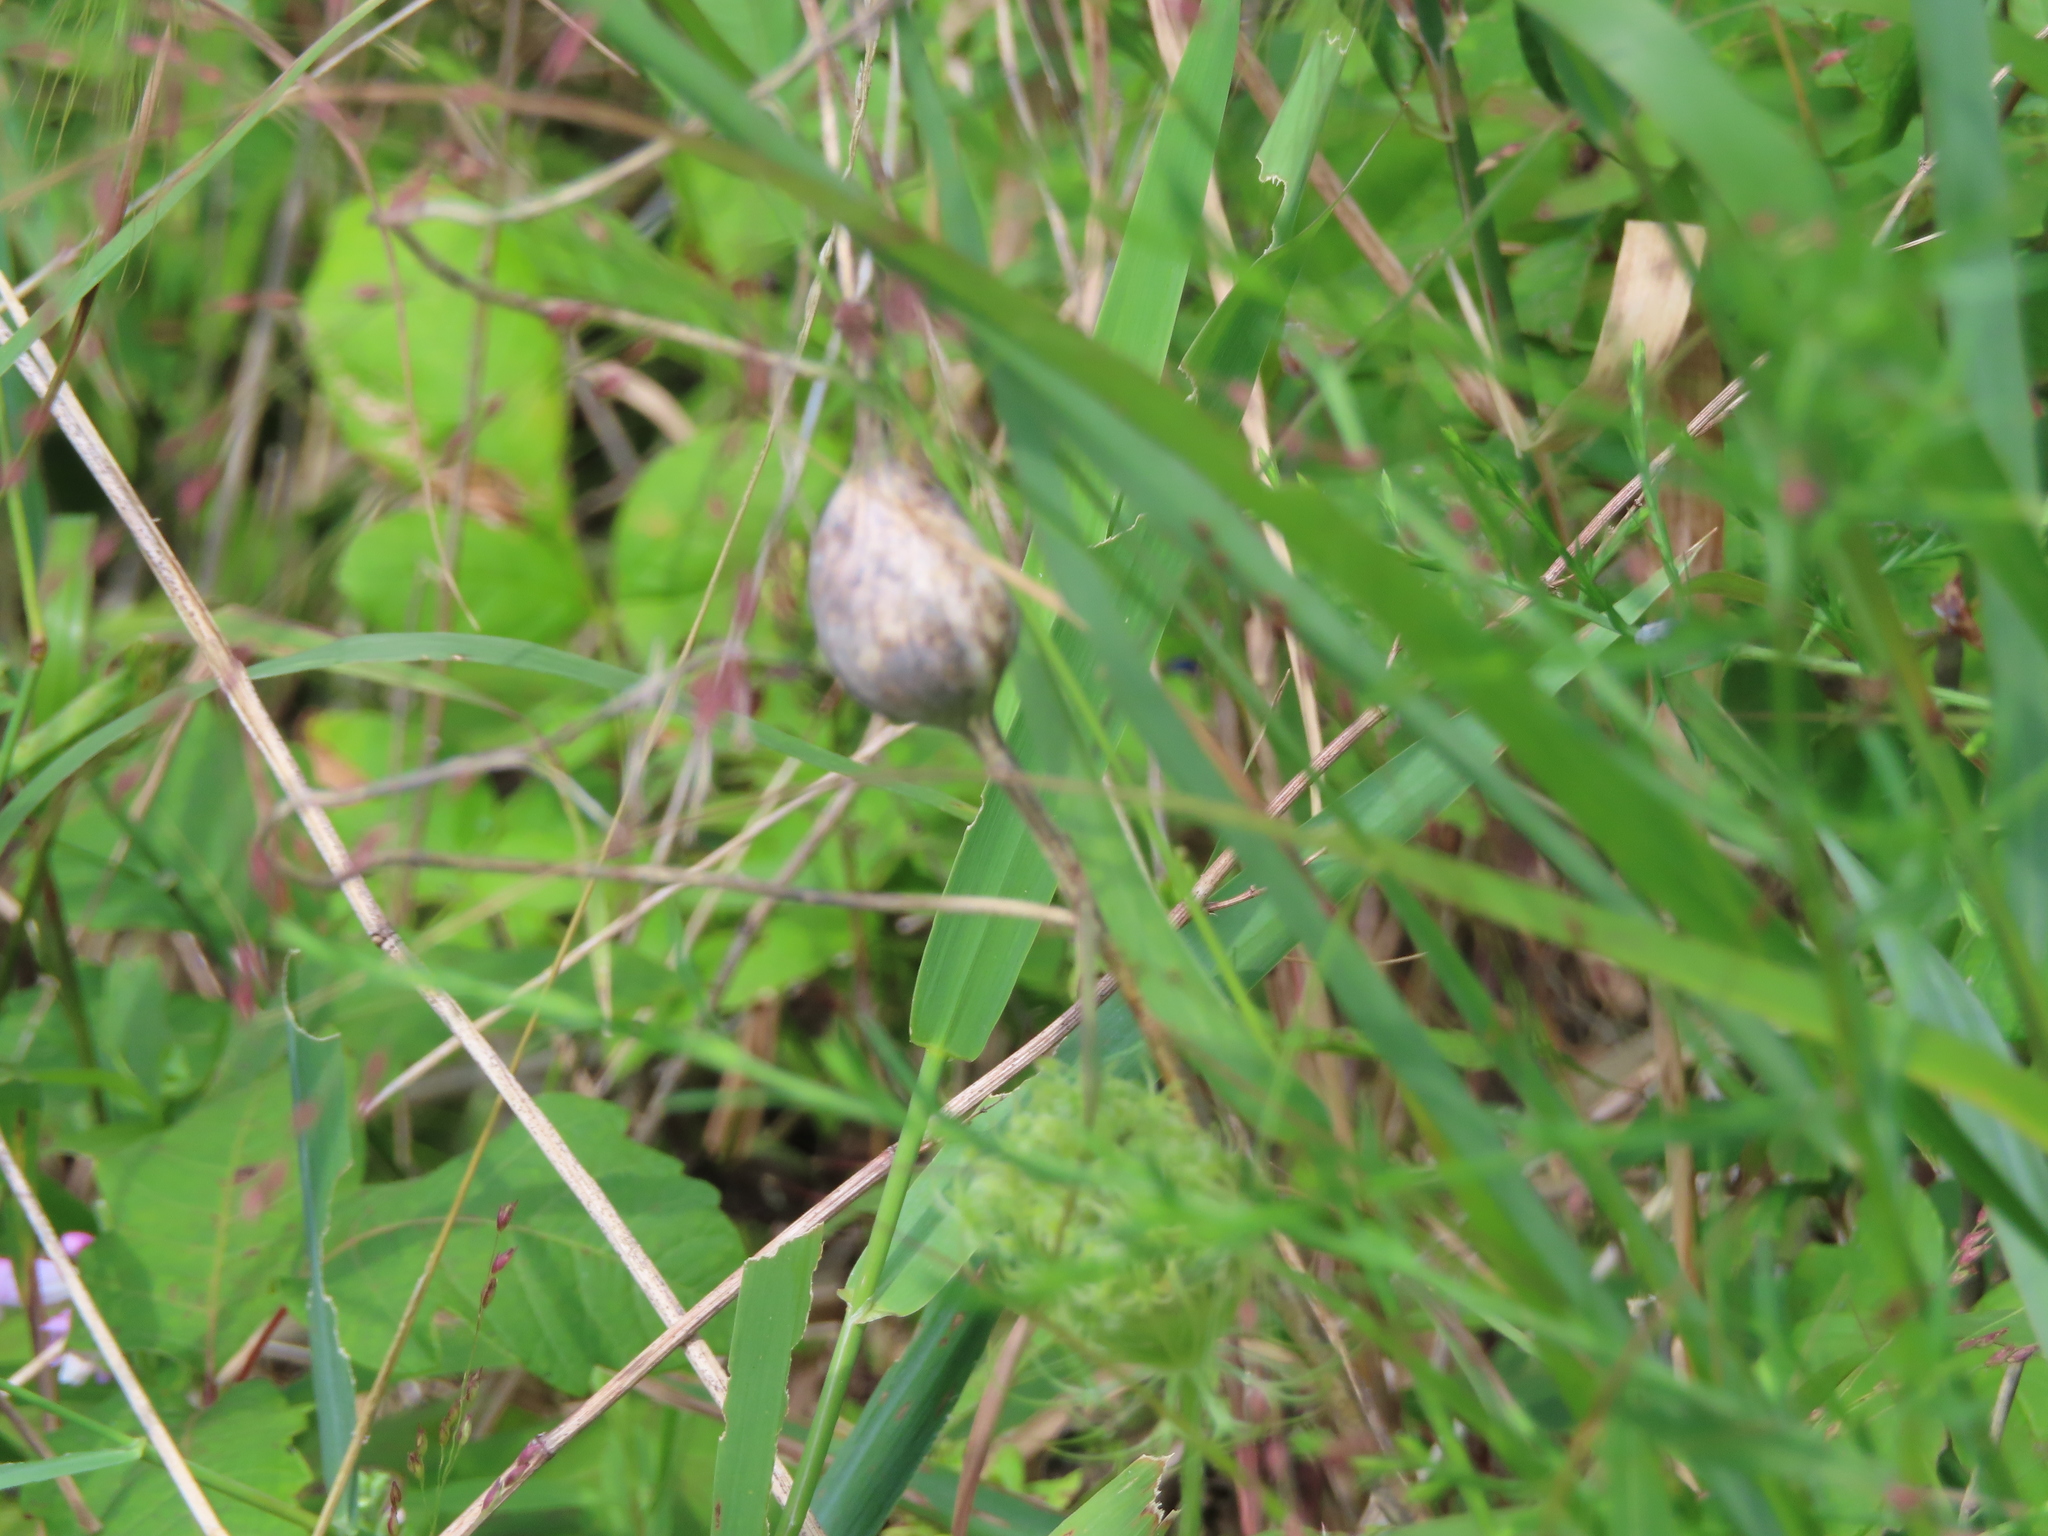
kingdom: Animalia
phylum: Arthropoda
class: Insecta
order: Diptera
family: Tephritidae
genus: Eurosta
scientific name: Eurosta solidaginis
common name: Goldenrod gall fly
